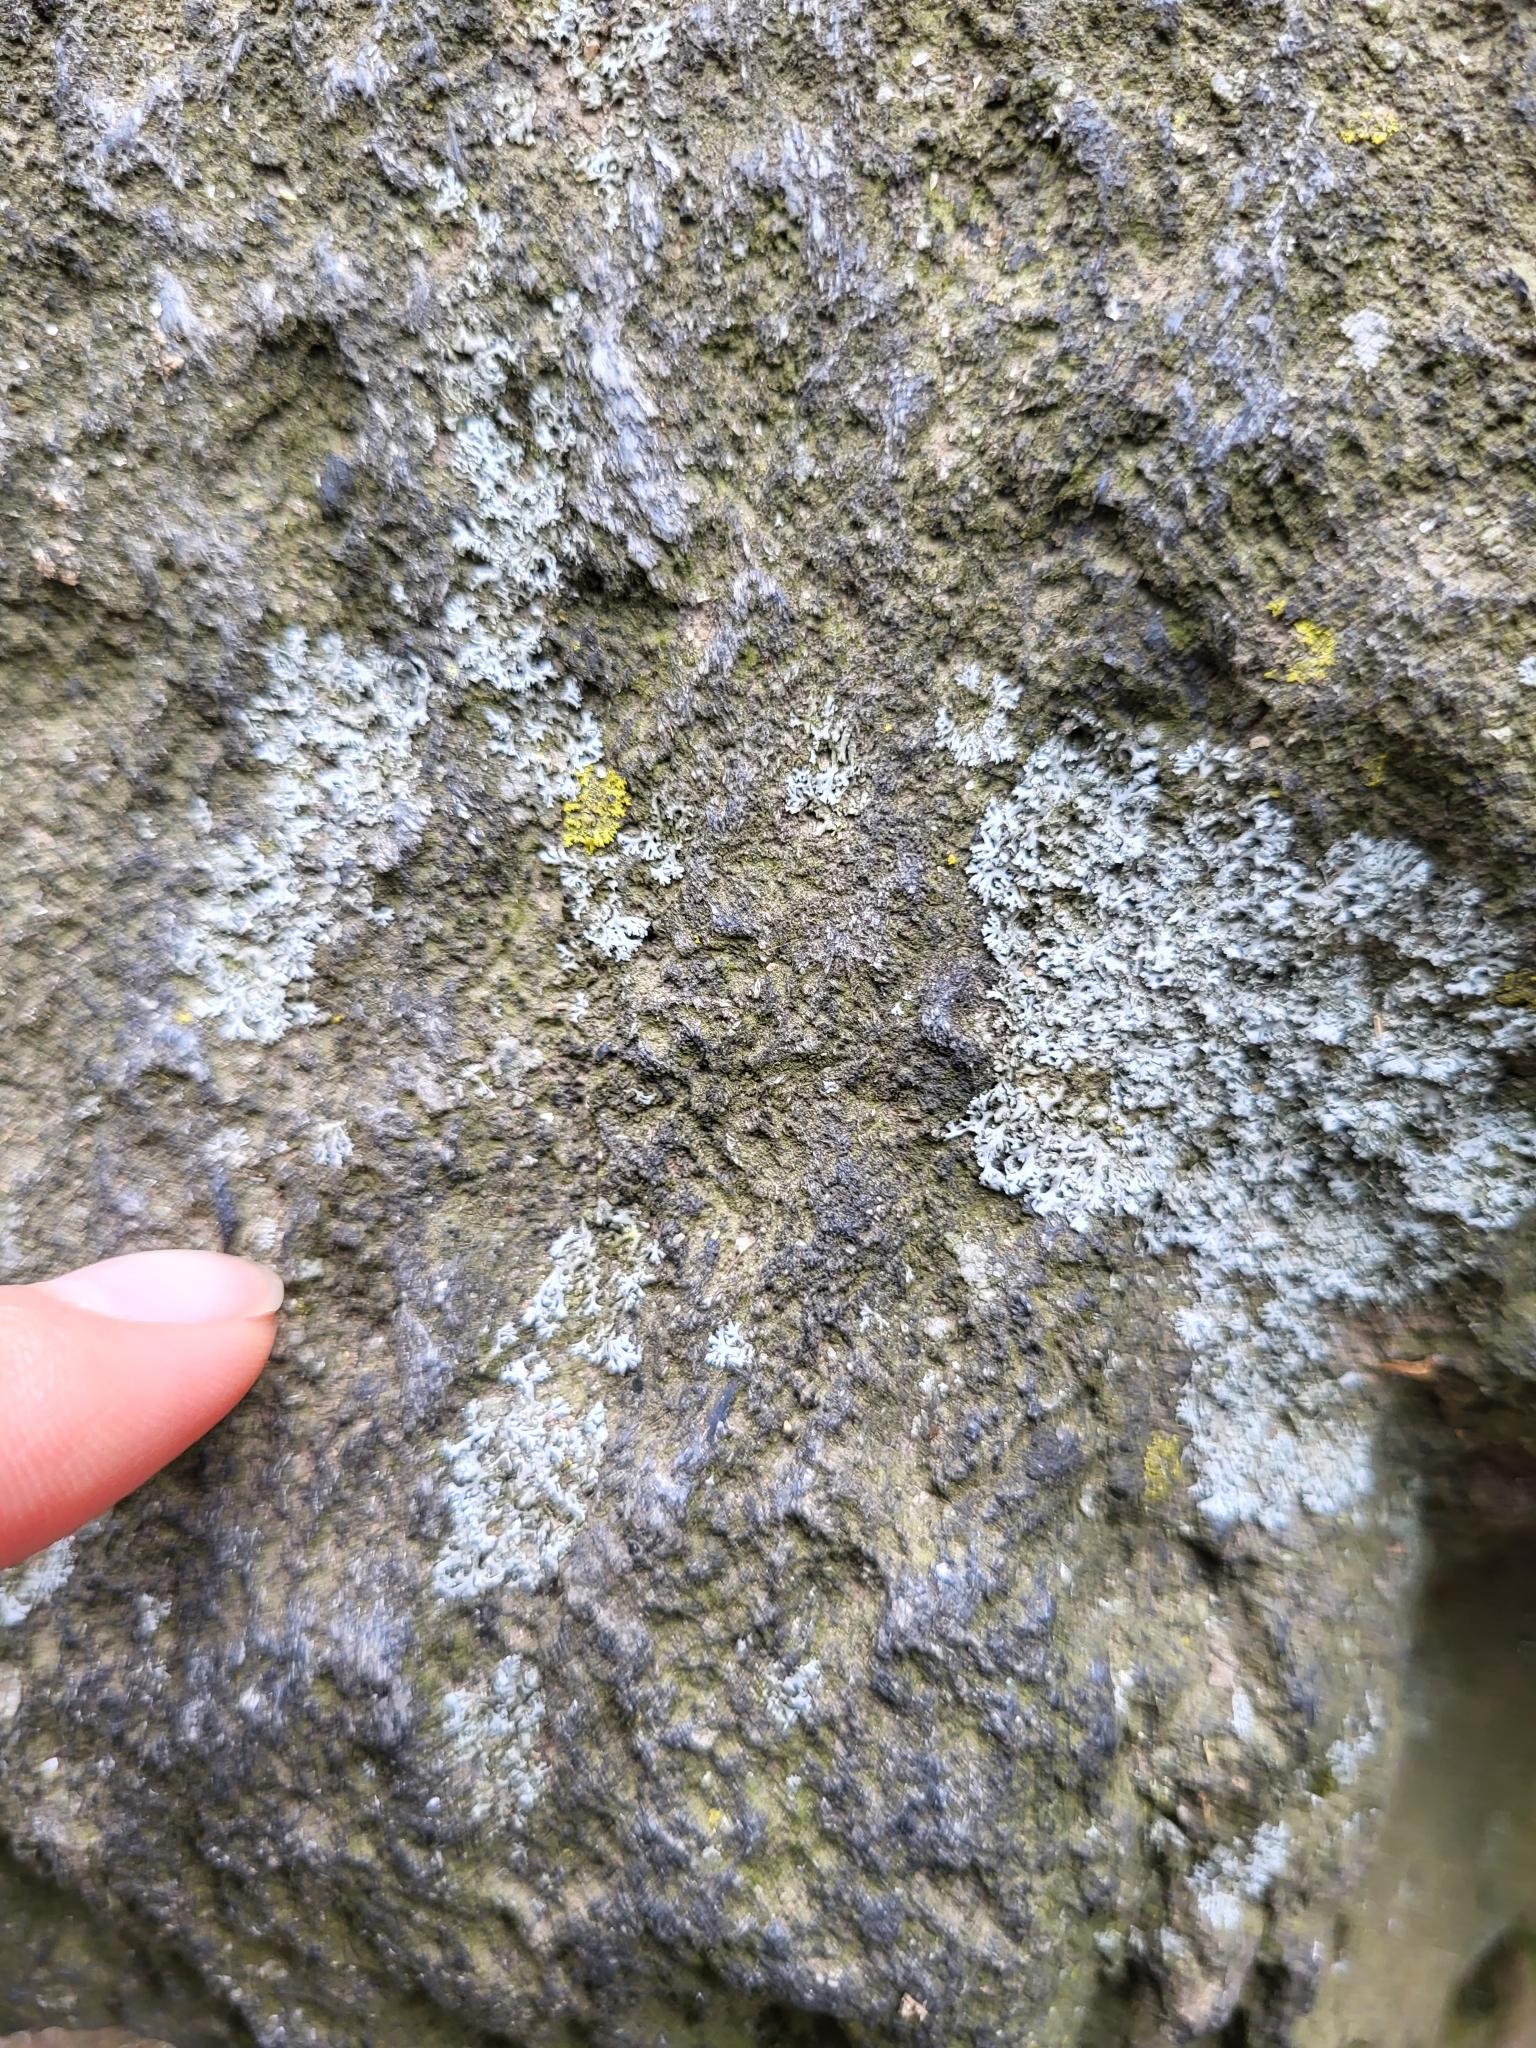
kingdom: Fungi
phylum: Ascomycota
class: Lecanoromycetes
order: Caliciales
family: Physciaceae
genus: Physcia
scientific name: Physcia thomsoniana
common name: Thomson's rosette lichen
